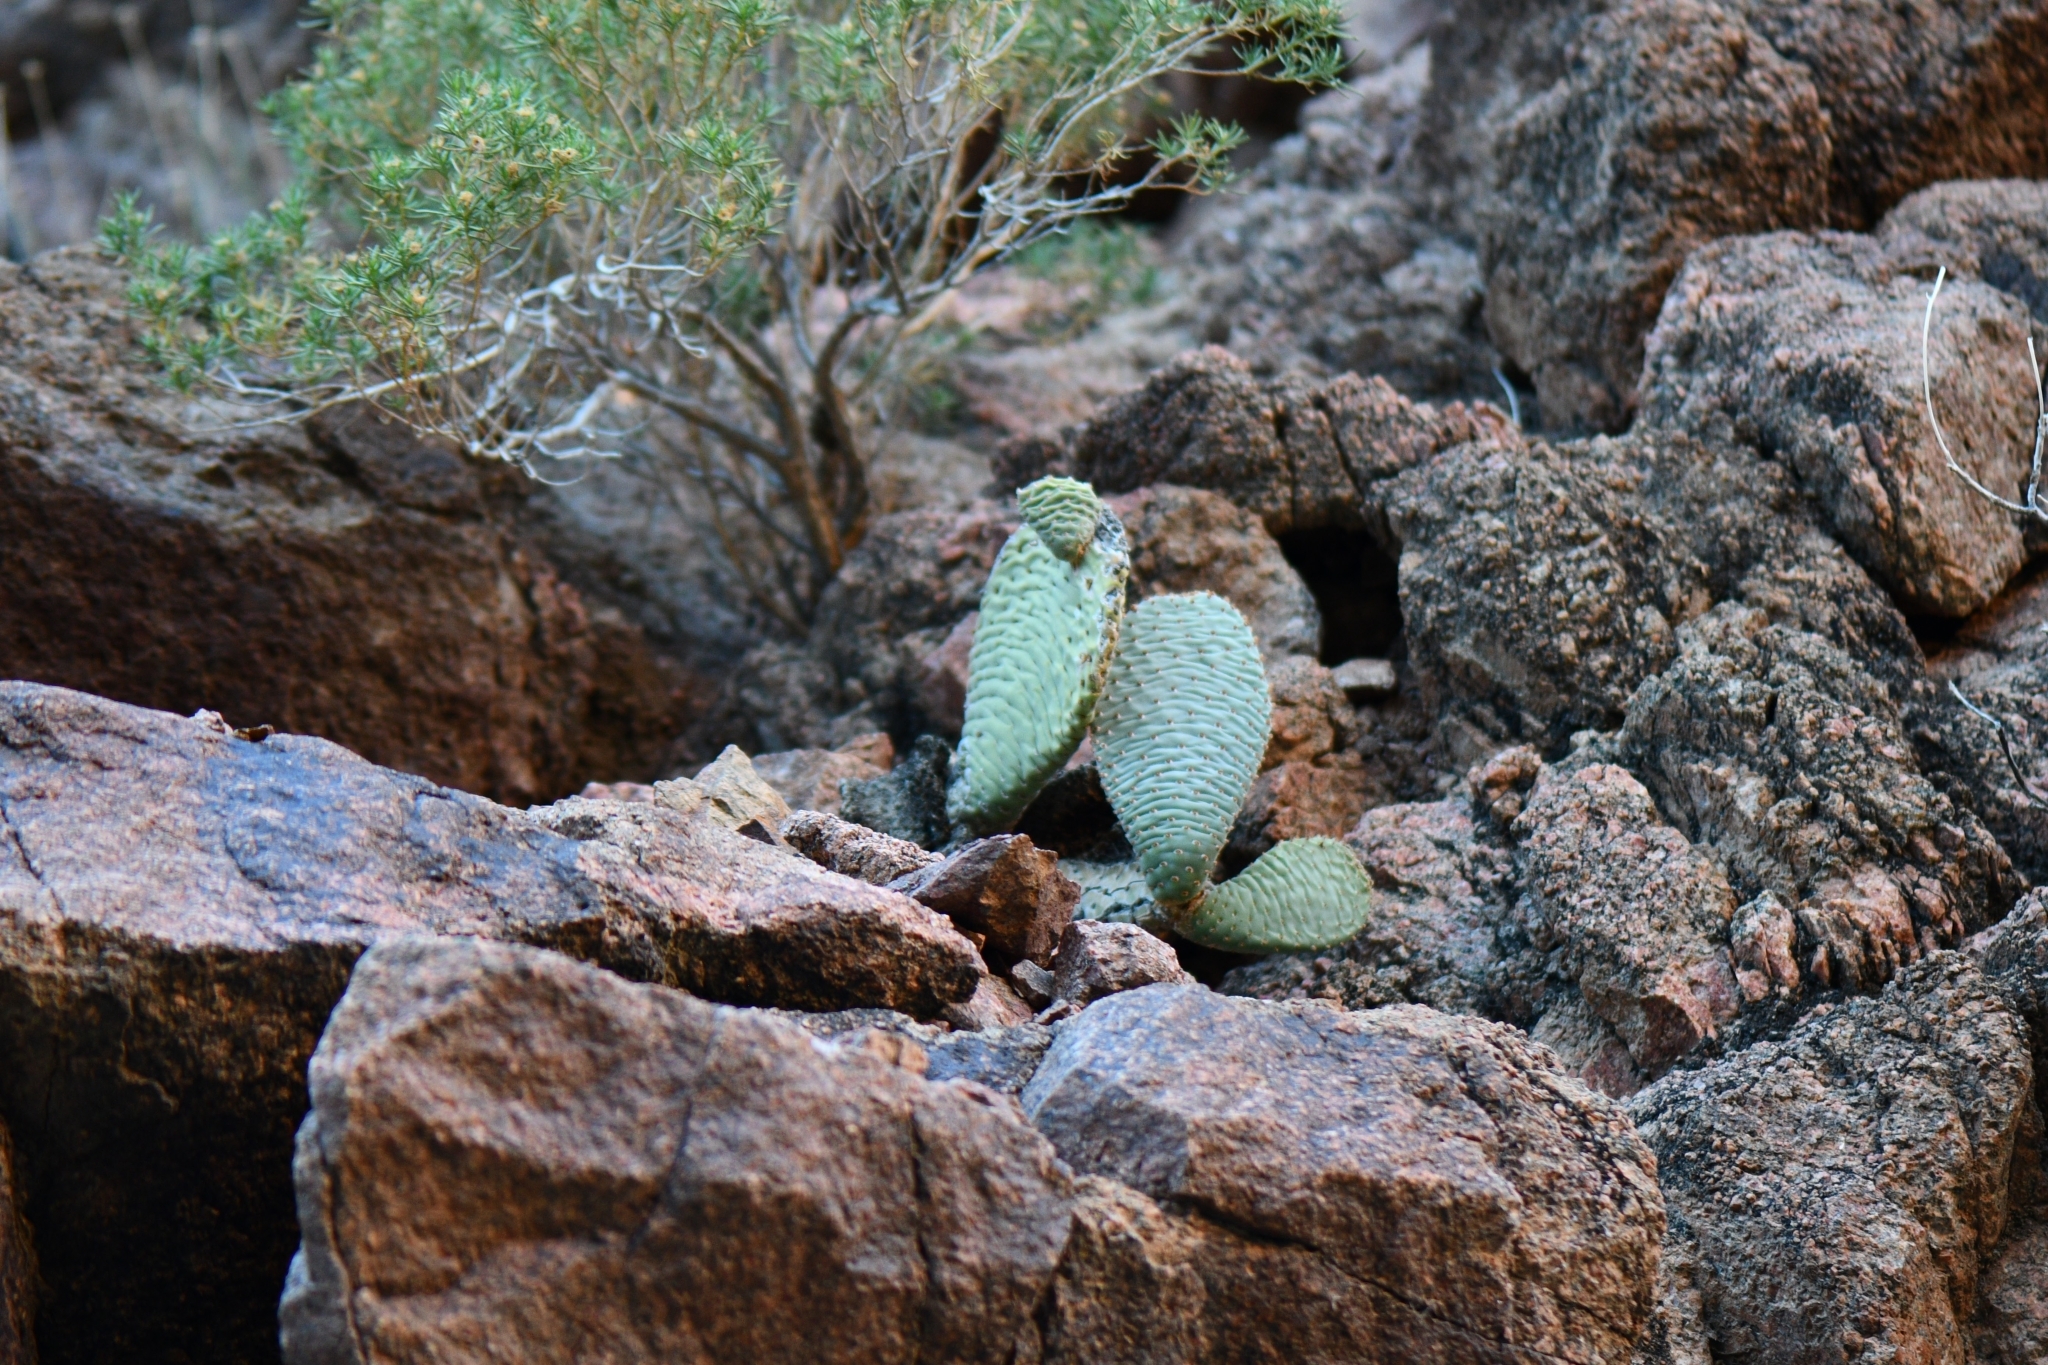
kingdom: Plantae
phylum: Tracheophyta
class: Magnoliopsida
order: Caryophyllales
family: Cactaceae
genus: Opuntia
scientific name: Opuntia basilaris
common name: Beavertail prickly-pear
